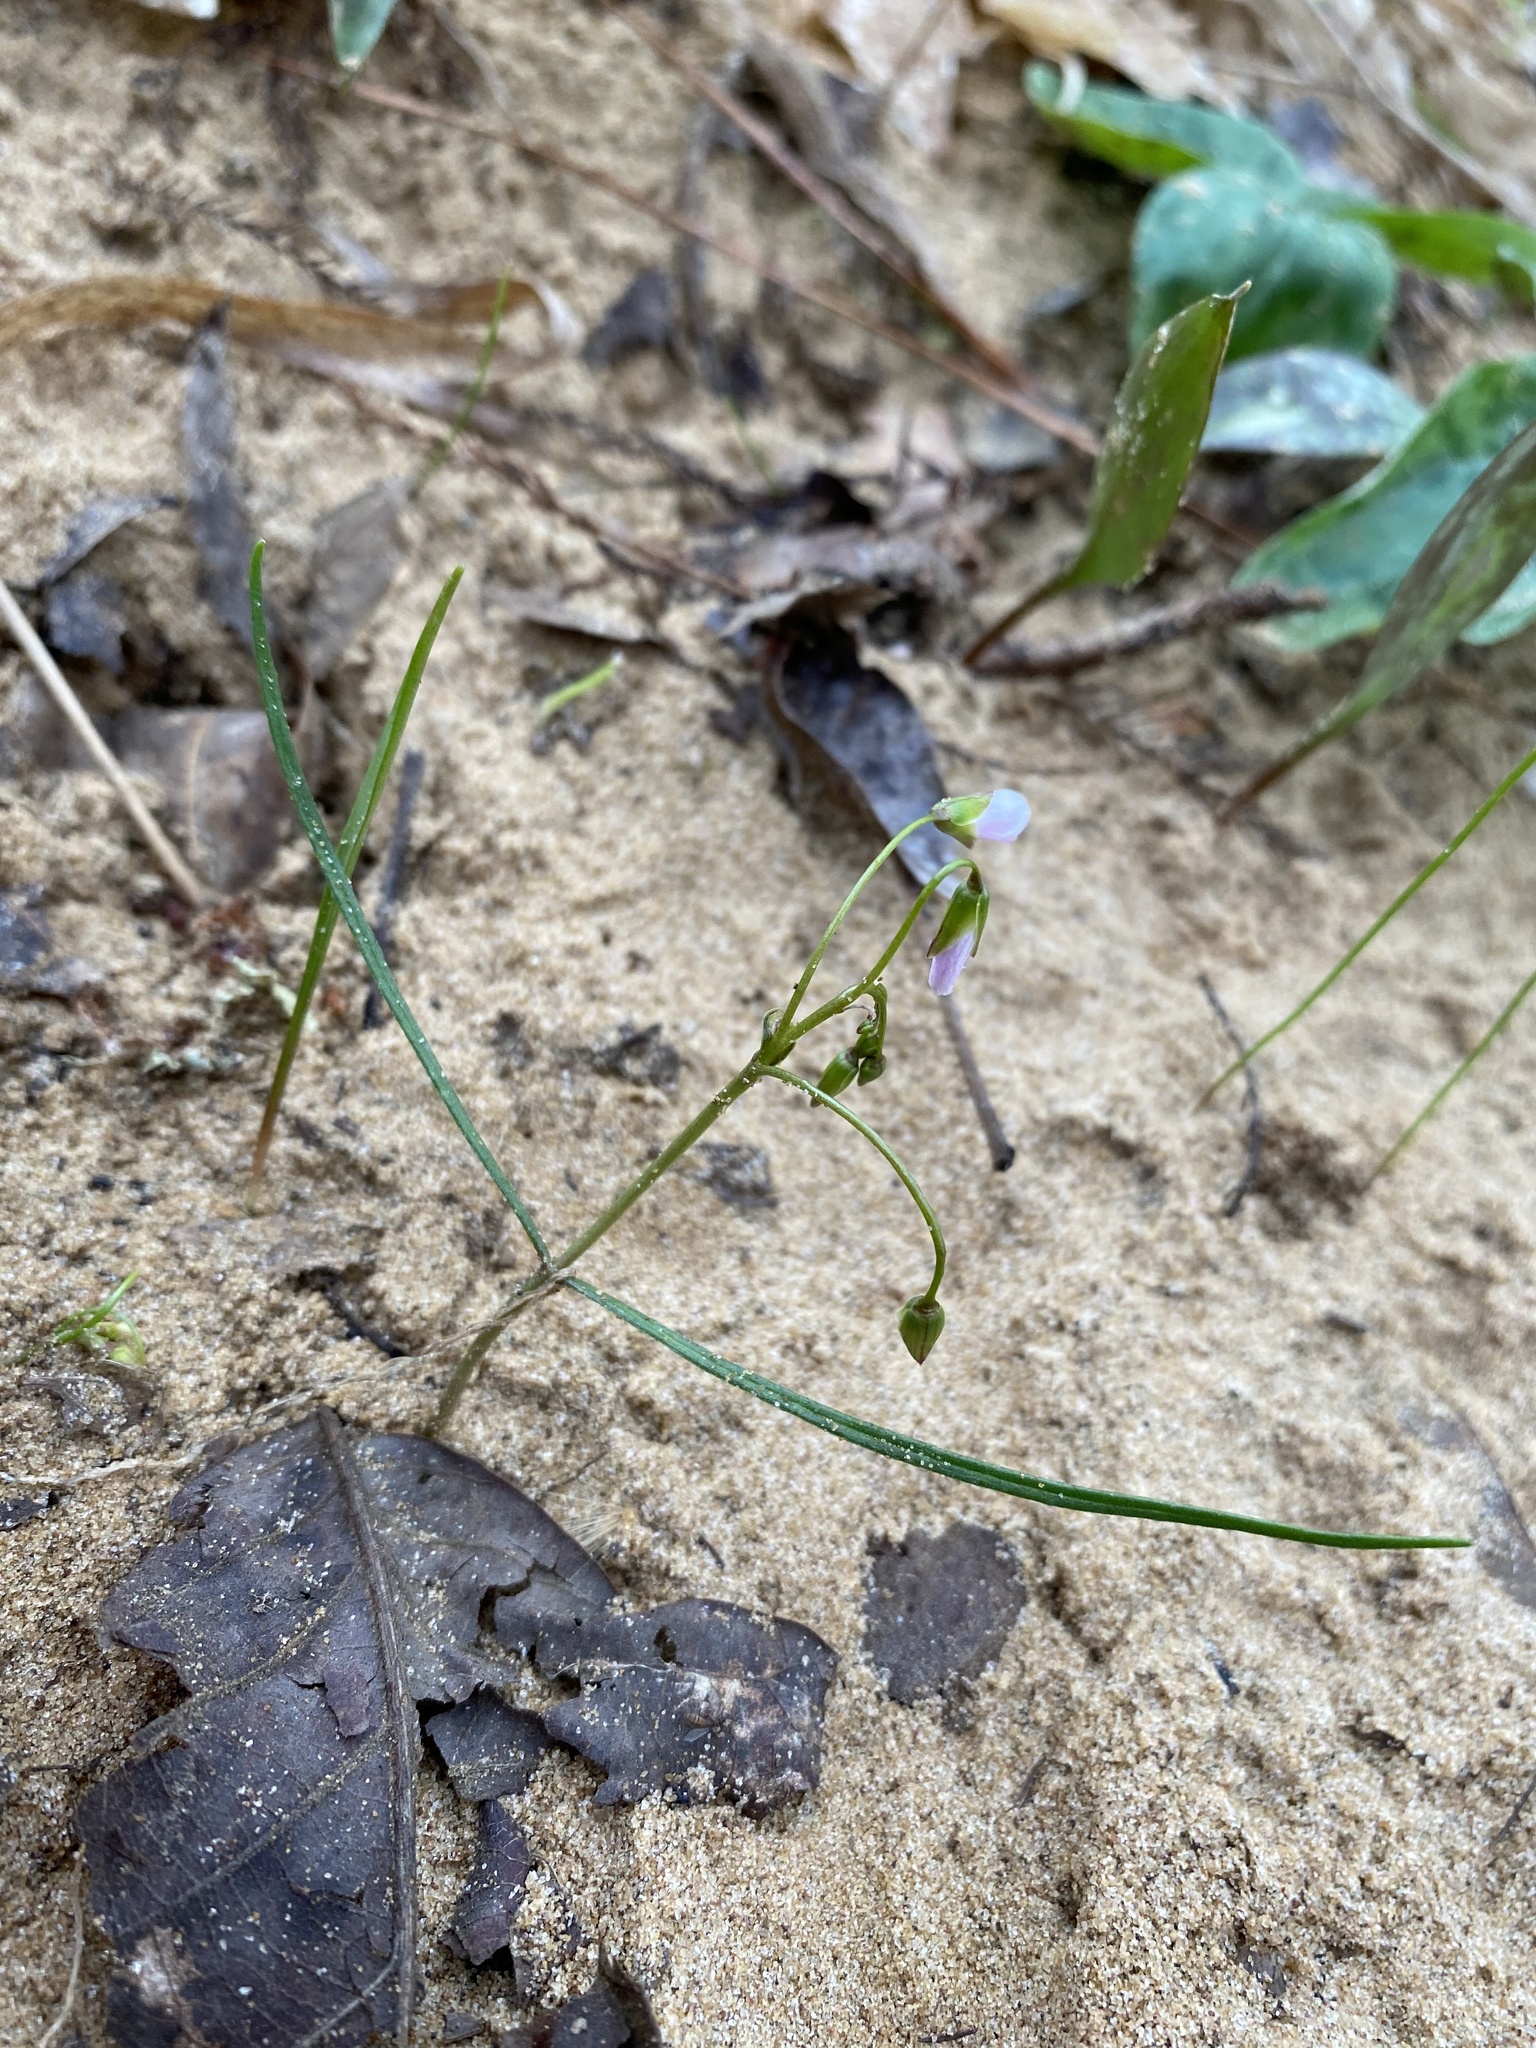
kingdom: Plantae
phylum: Tracheophyta
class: Magnoliopsida
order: Caryophyllales
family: Montiaceae
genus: Claytonia
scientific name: Claytonia virginica
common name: Virginia springbeauty
